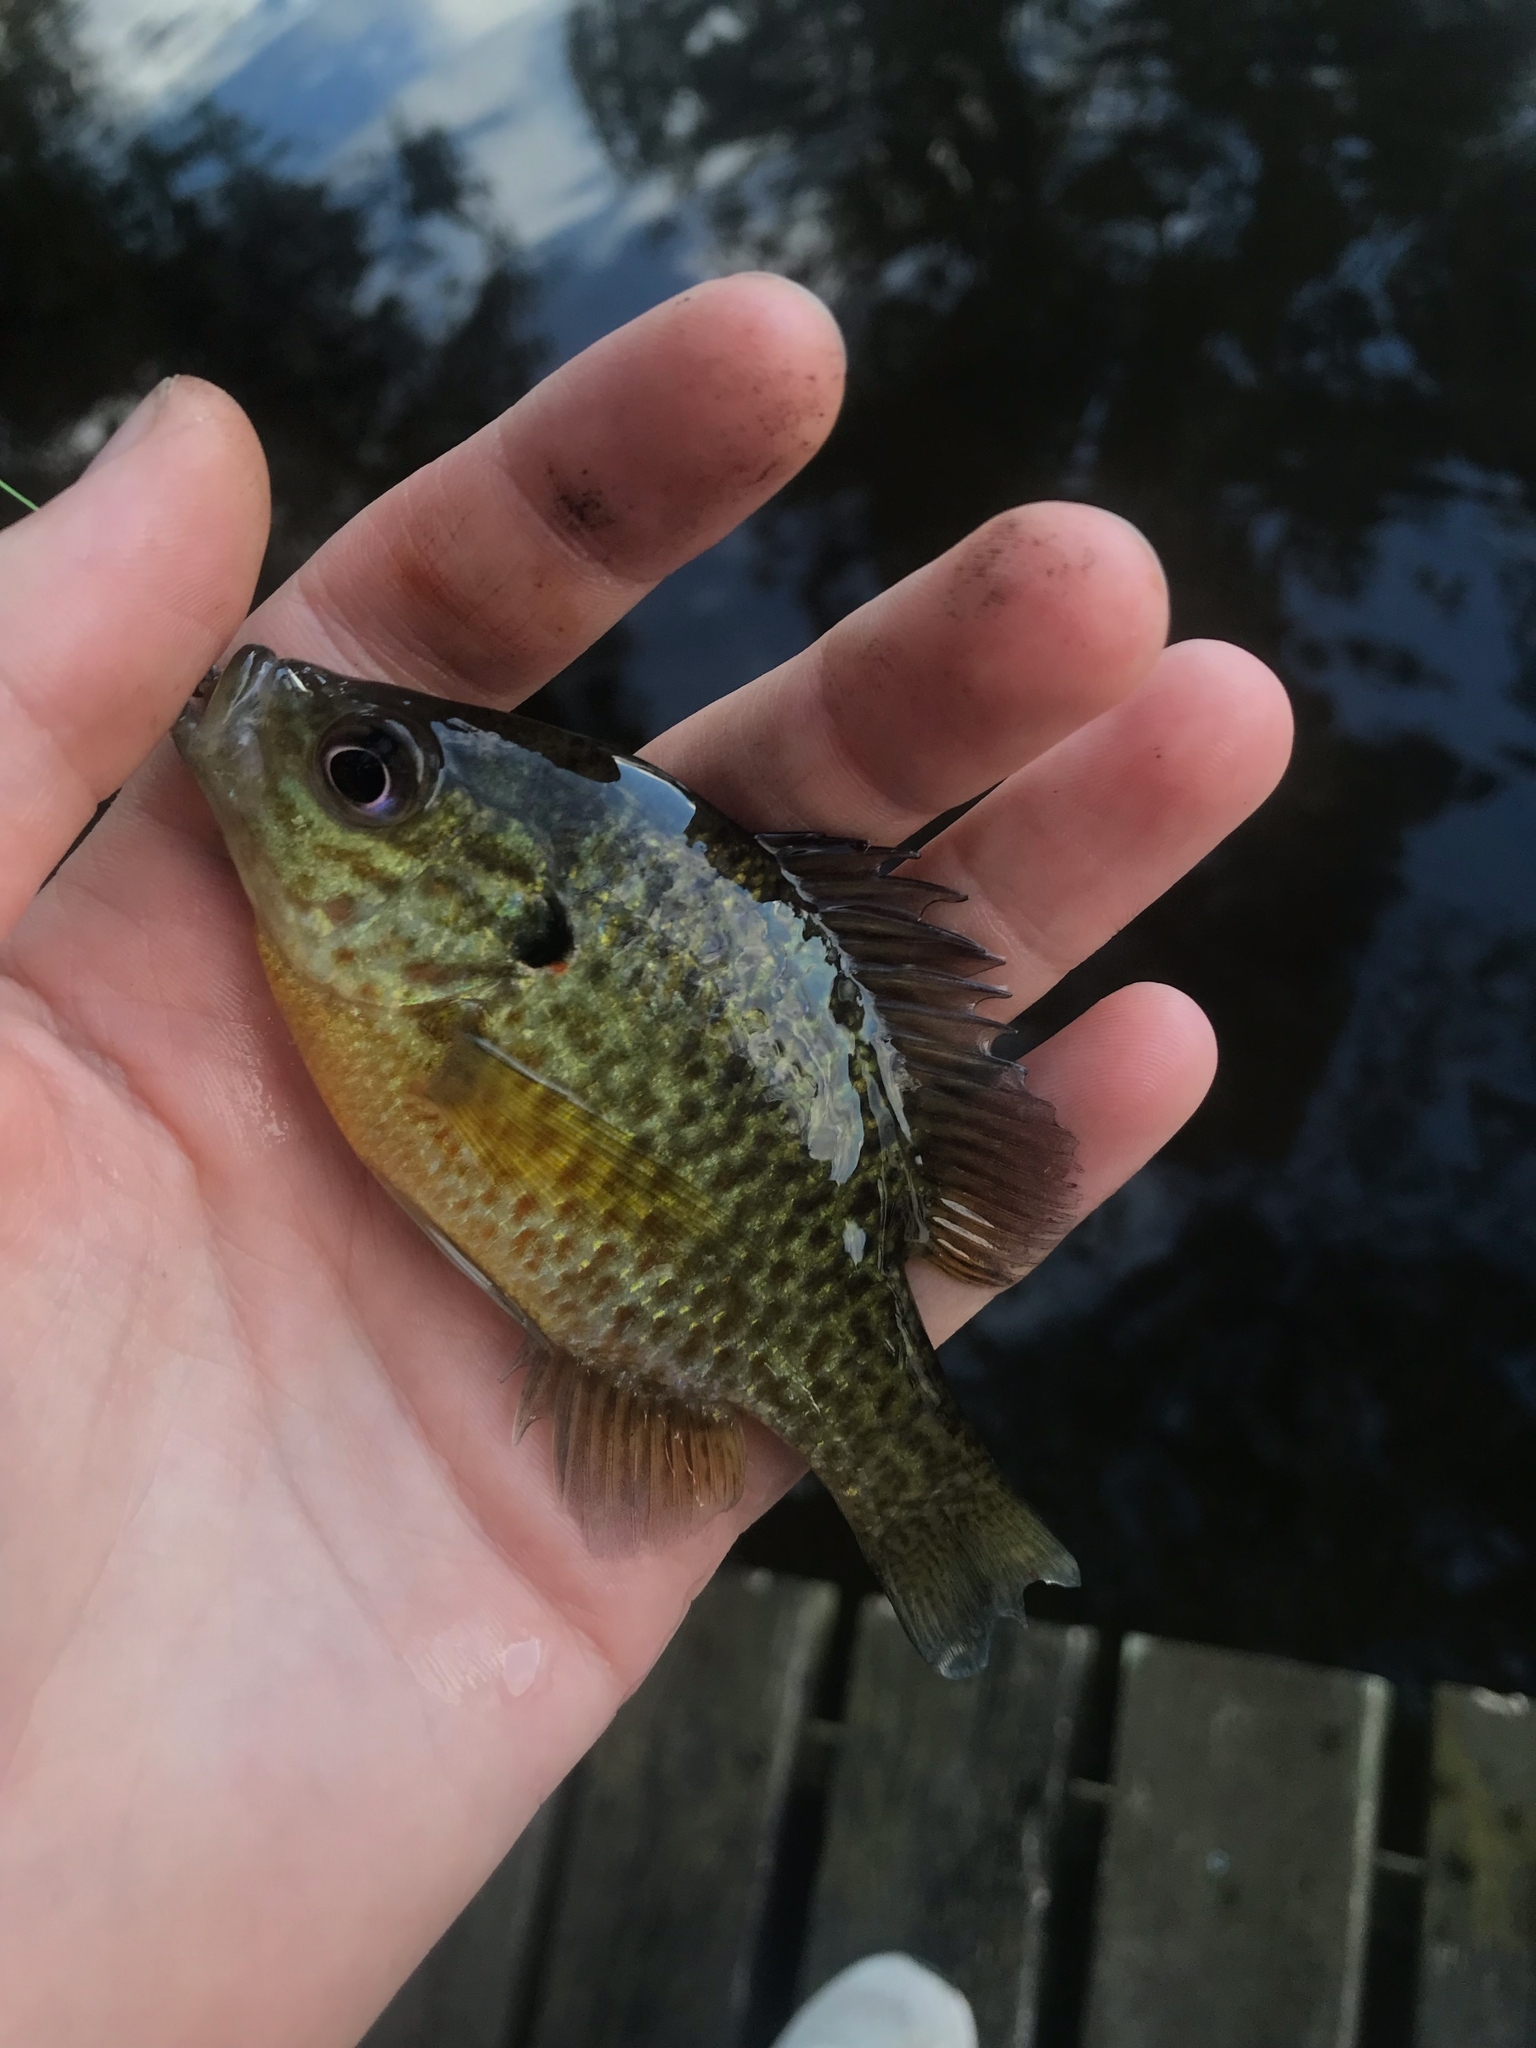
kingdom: Animalia
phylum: Chordata
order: Perciformes
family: Centrarchidae
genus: Lepomis
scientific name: Lepomis gibbosus
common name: Pumpkinseed
